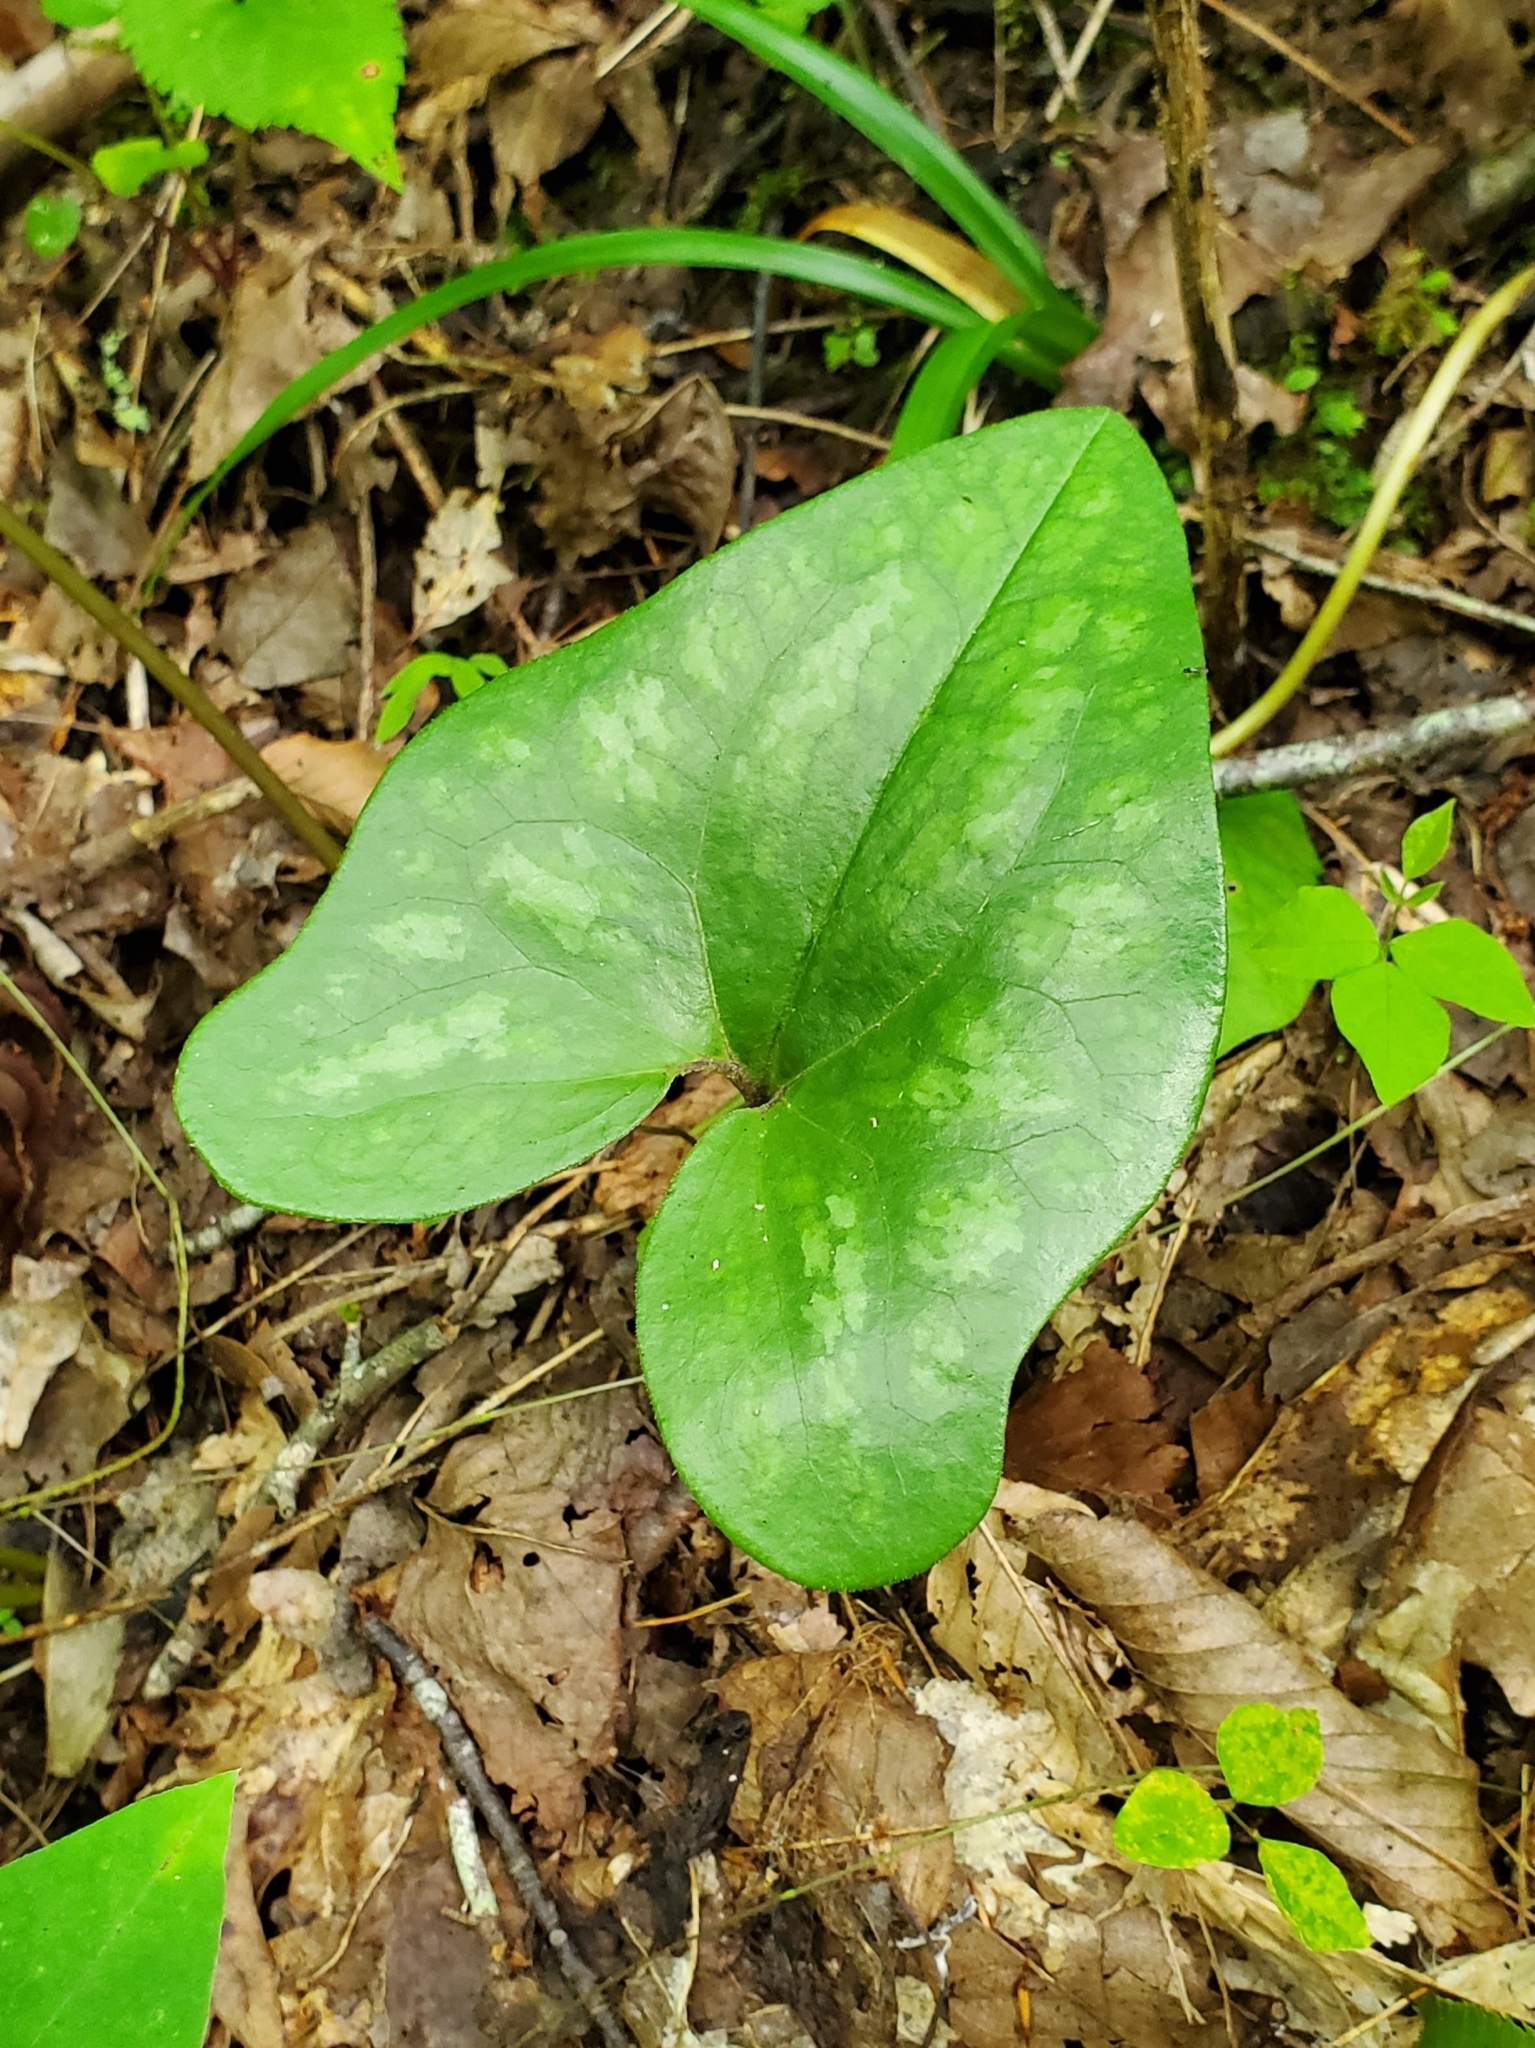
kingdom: Plantae
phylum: Tracheophyta
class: Magnoliopsida
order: Piperales
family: Aristolochiaceae
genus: Hexastylis
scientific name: Hexastylis arifolia
